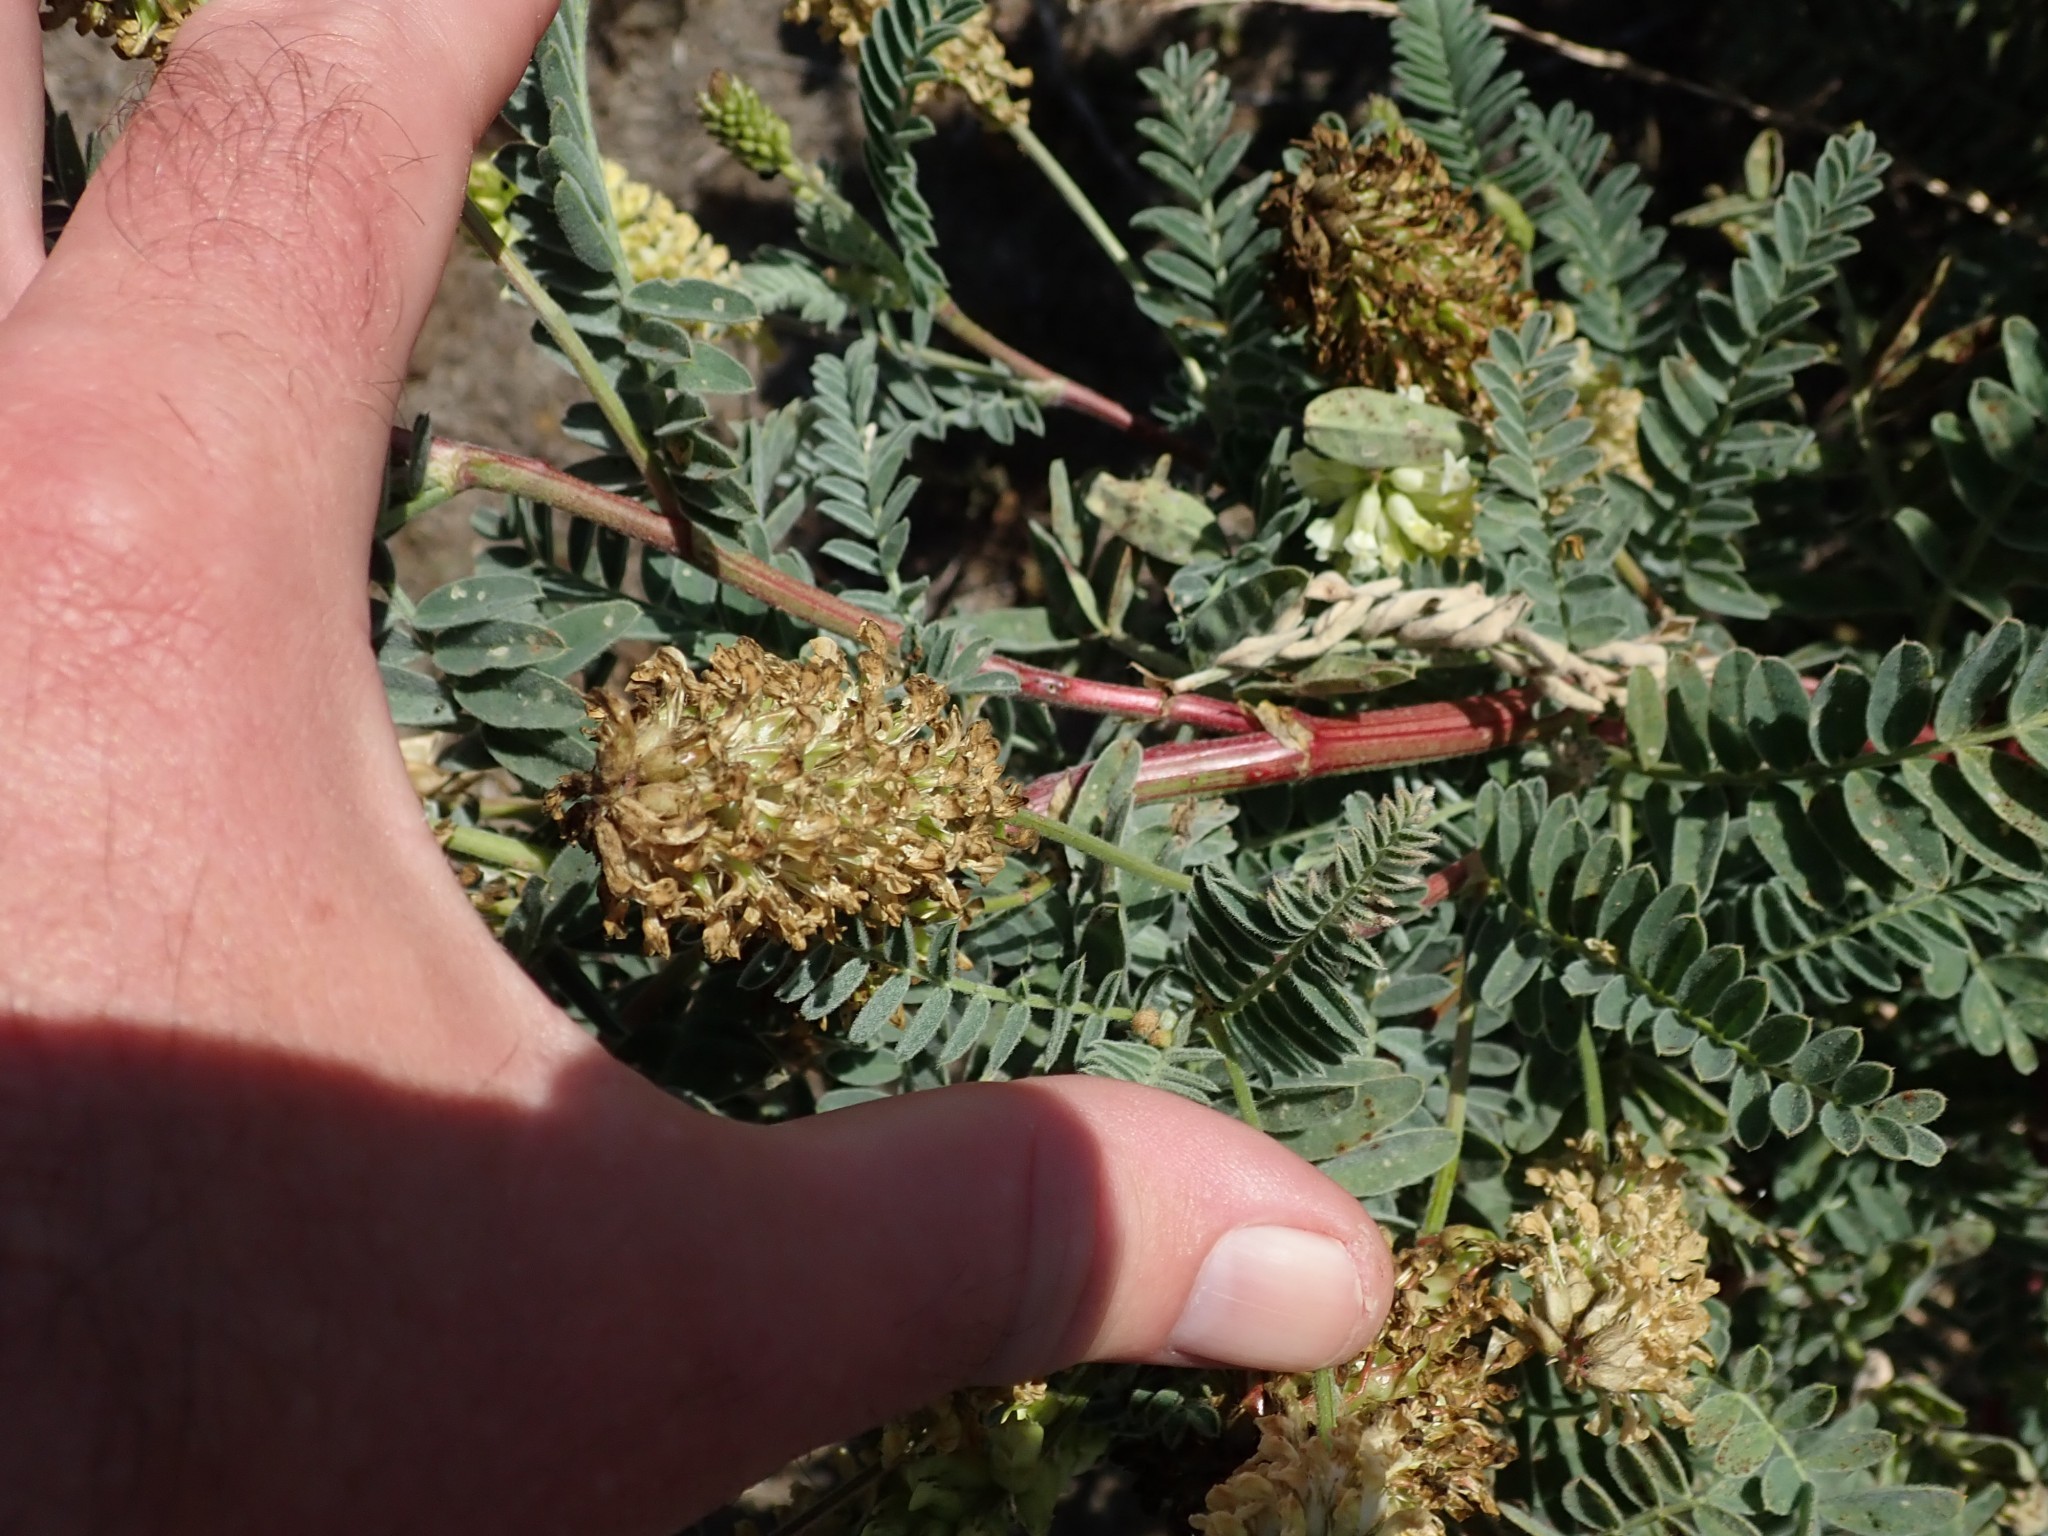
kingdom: Plantae
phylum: Tracheophyta
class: Magnoliopsida
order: Fabales
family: Fabaceae
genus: Astragalus
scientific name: Astragalus pycnostachyus
